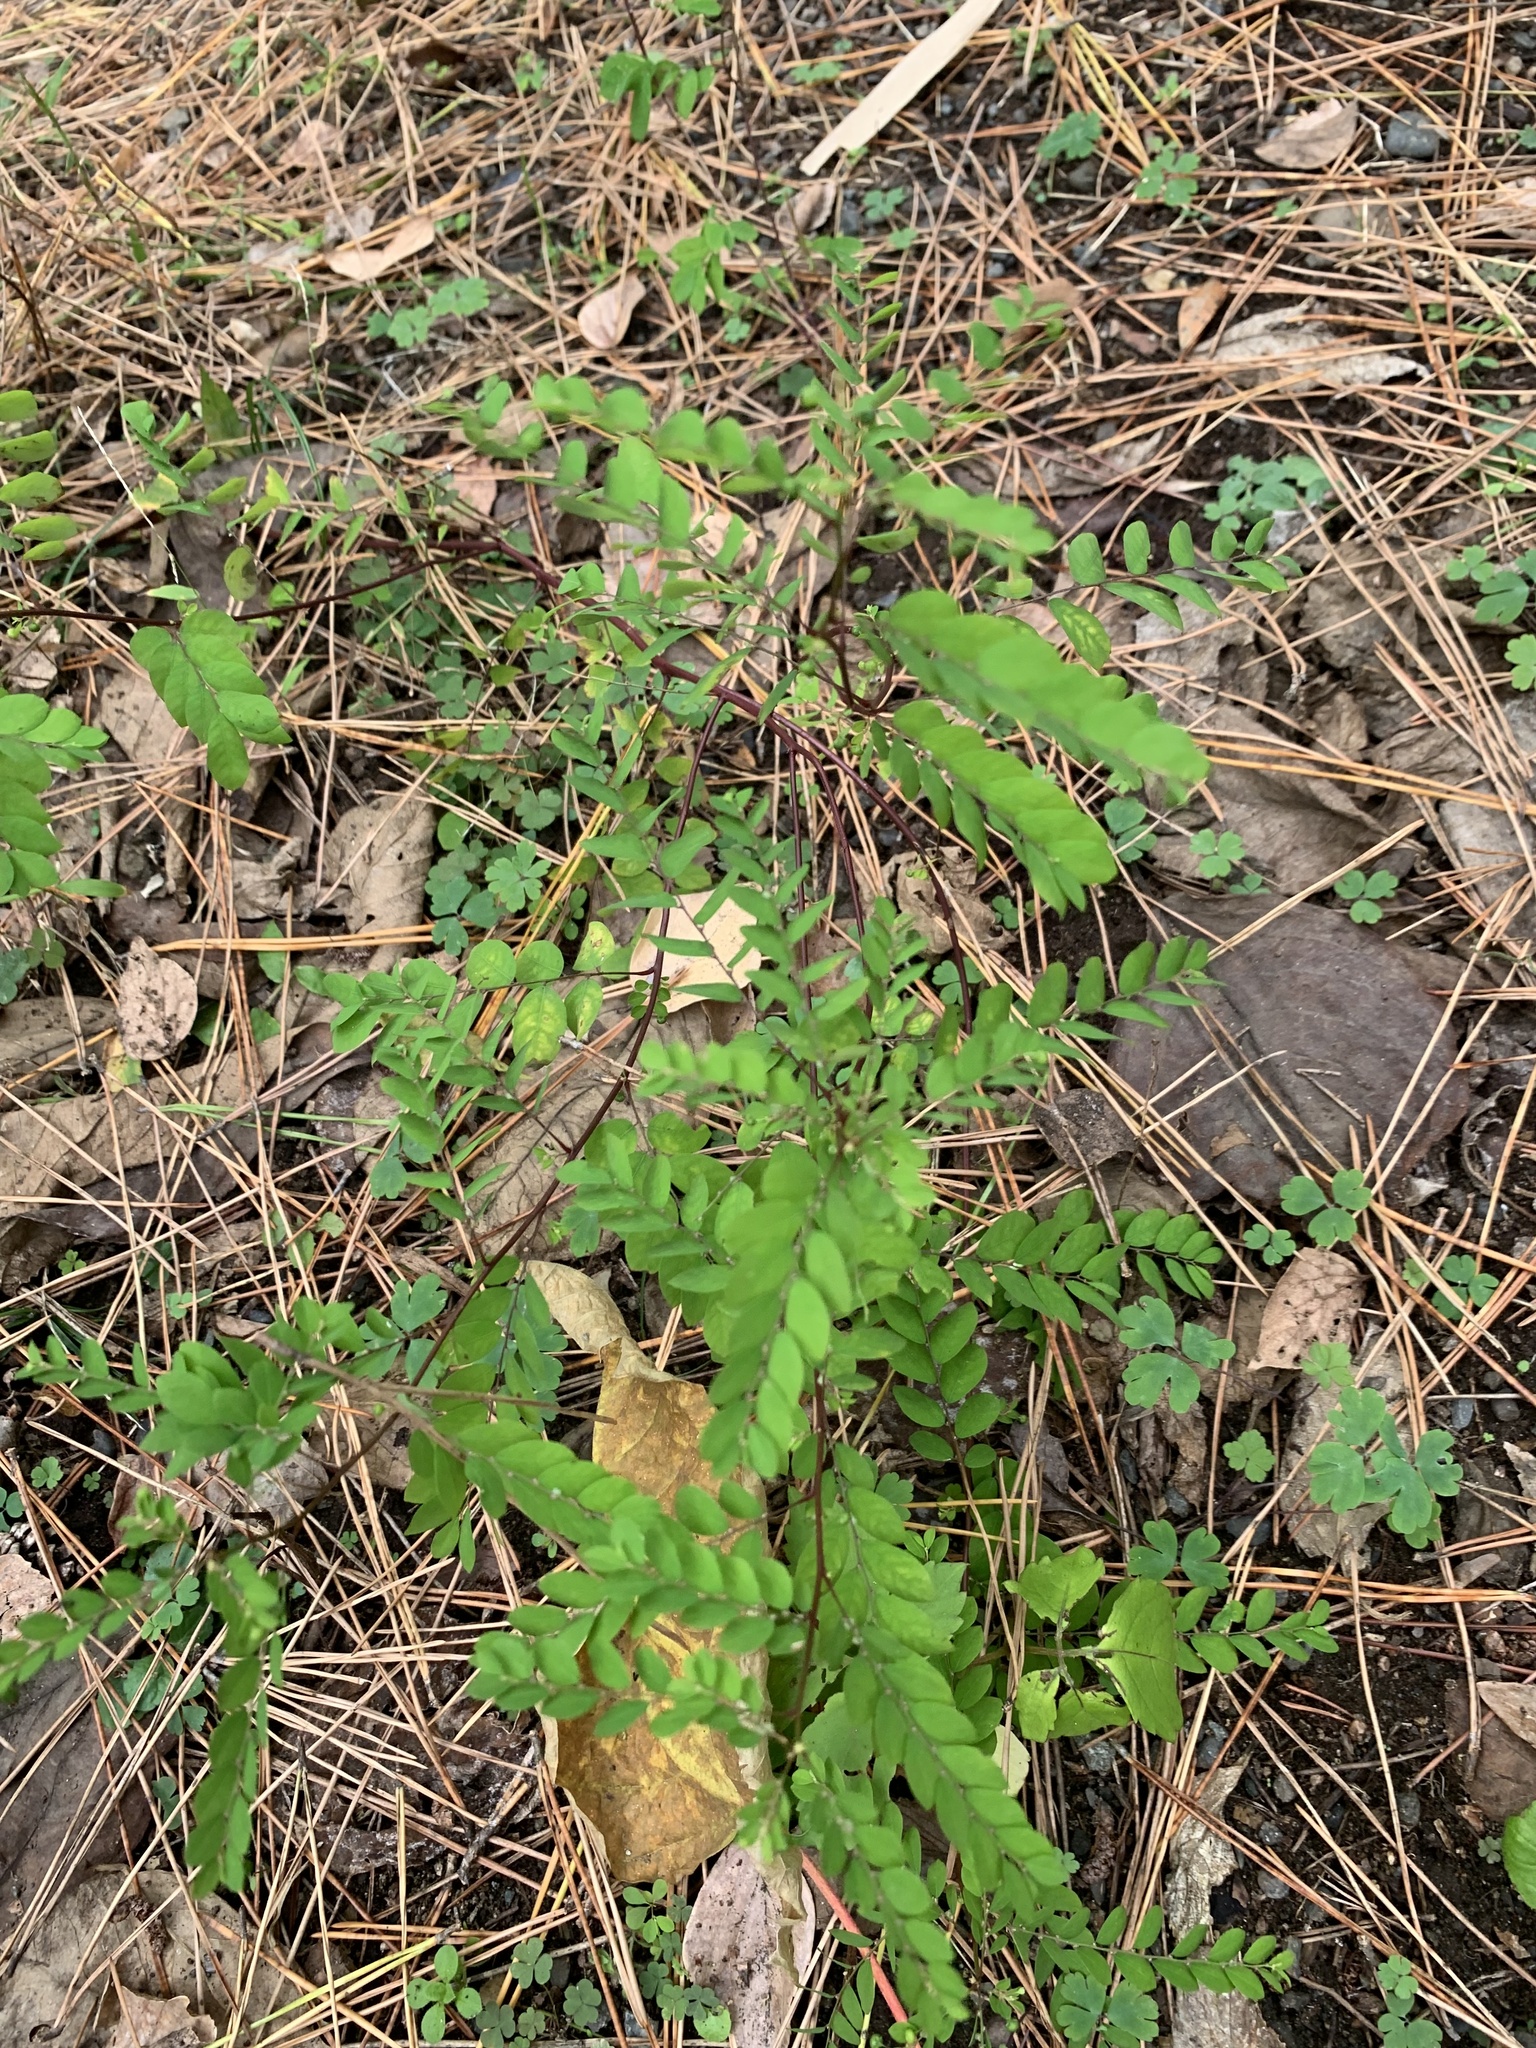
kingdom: Plantae
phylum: Tracheophyta
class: Magnoliopsida
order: Malpighiales
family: Phyllanthaceae
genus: Phyllanthus
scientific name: Phyllanthus tenellus
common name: Mascarene island leaf-flower
